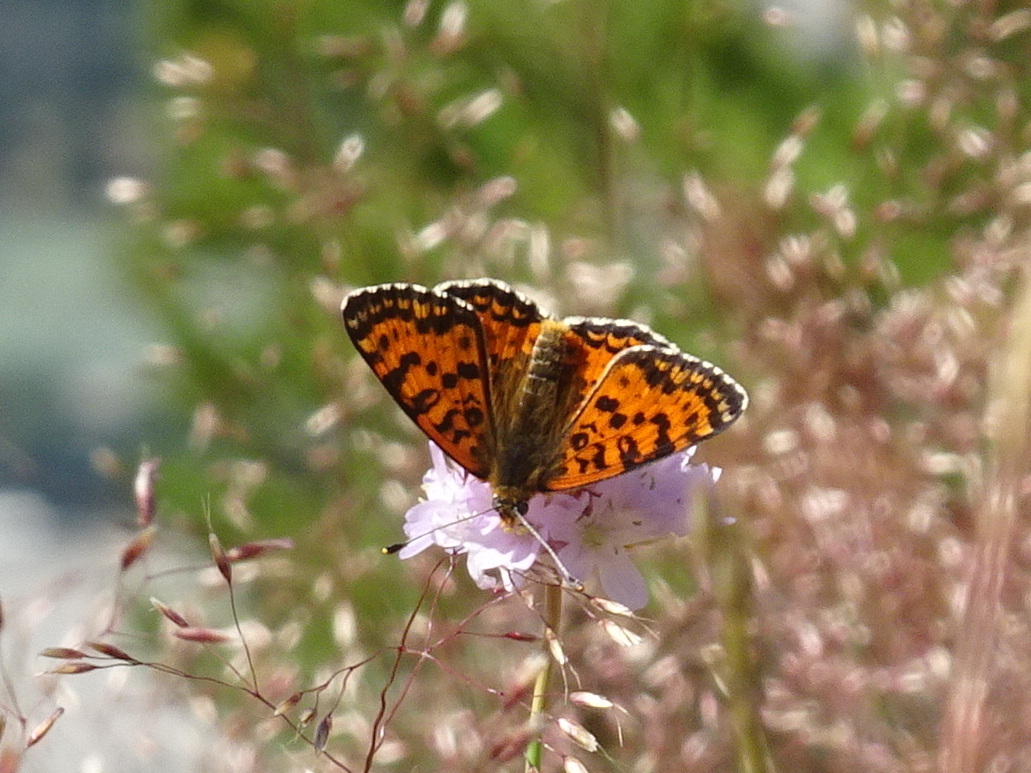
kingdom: Animalia
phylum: Arthropoda
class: Insecta
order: Lepidoptera
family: Nymphalidae
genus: Melitaea
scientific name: Melitaea didyma
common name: Spotted fritillary
